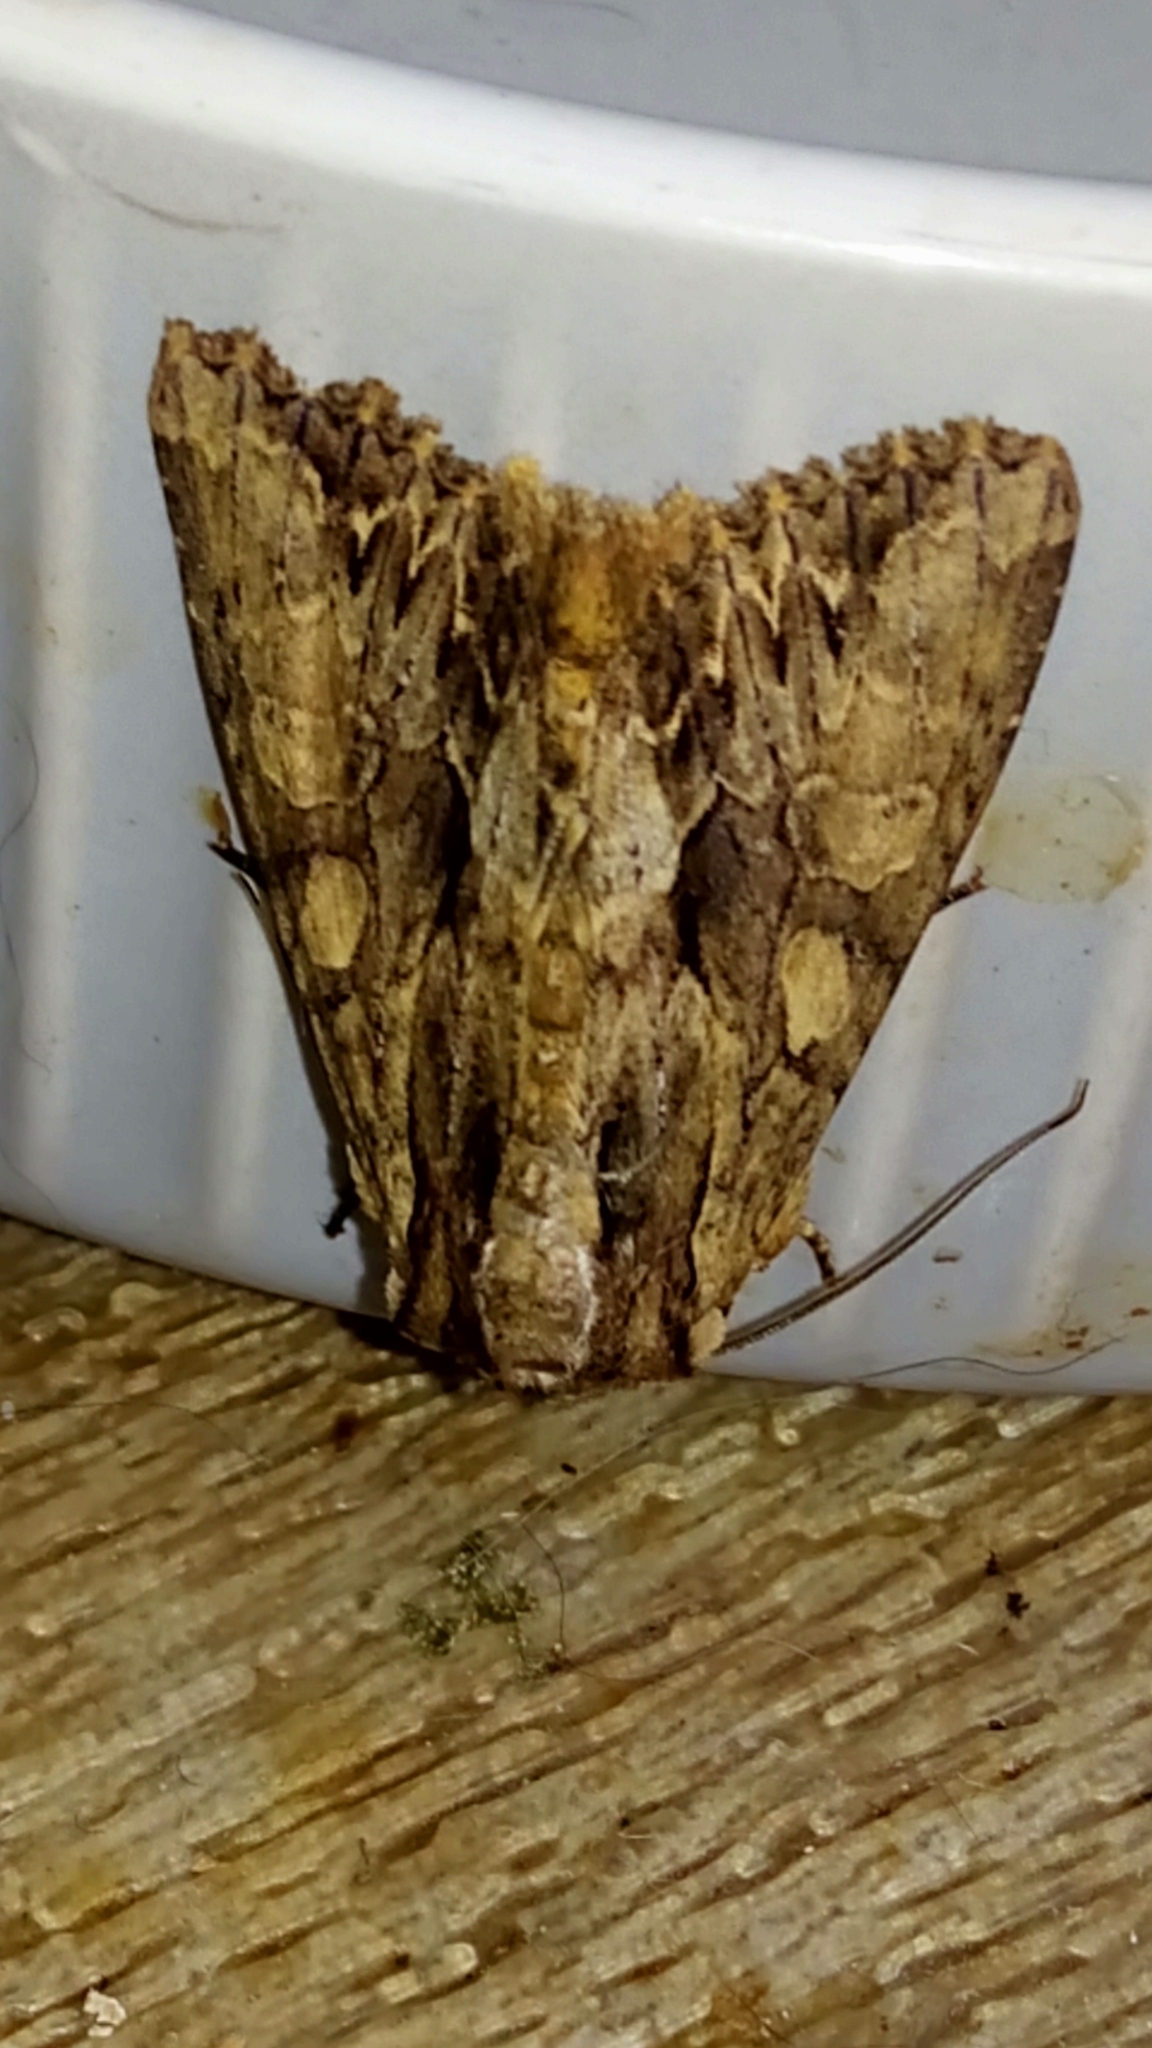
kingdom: Animalia
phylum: Arthropoda
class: Insecta
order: Lepidoptera
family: Noctuidae
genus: Apamea
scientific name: Apamea monoglypha
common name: Dark arches
